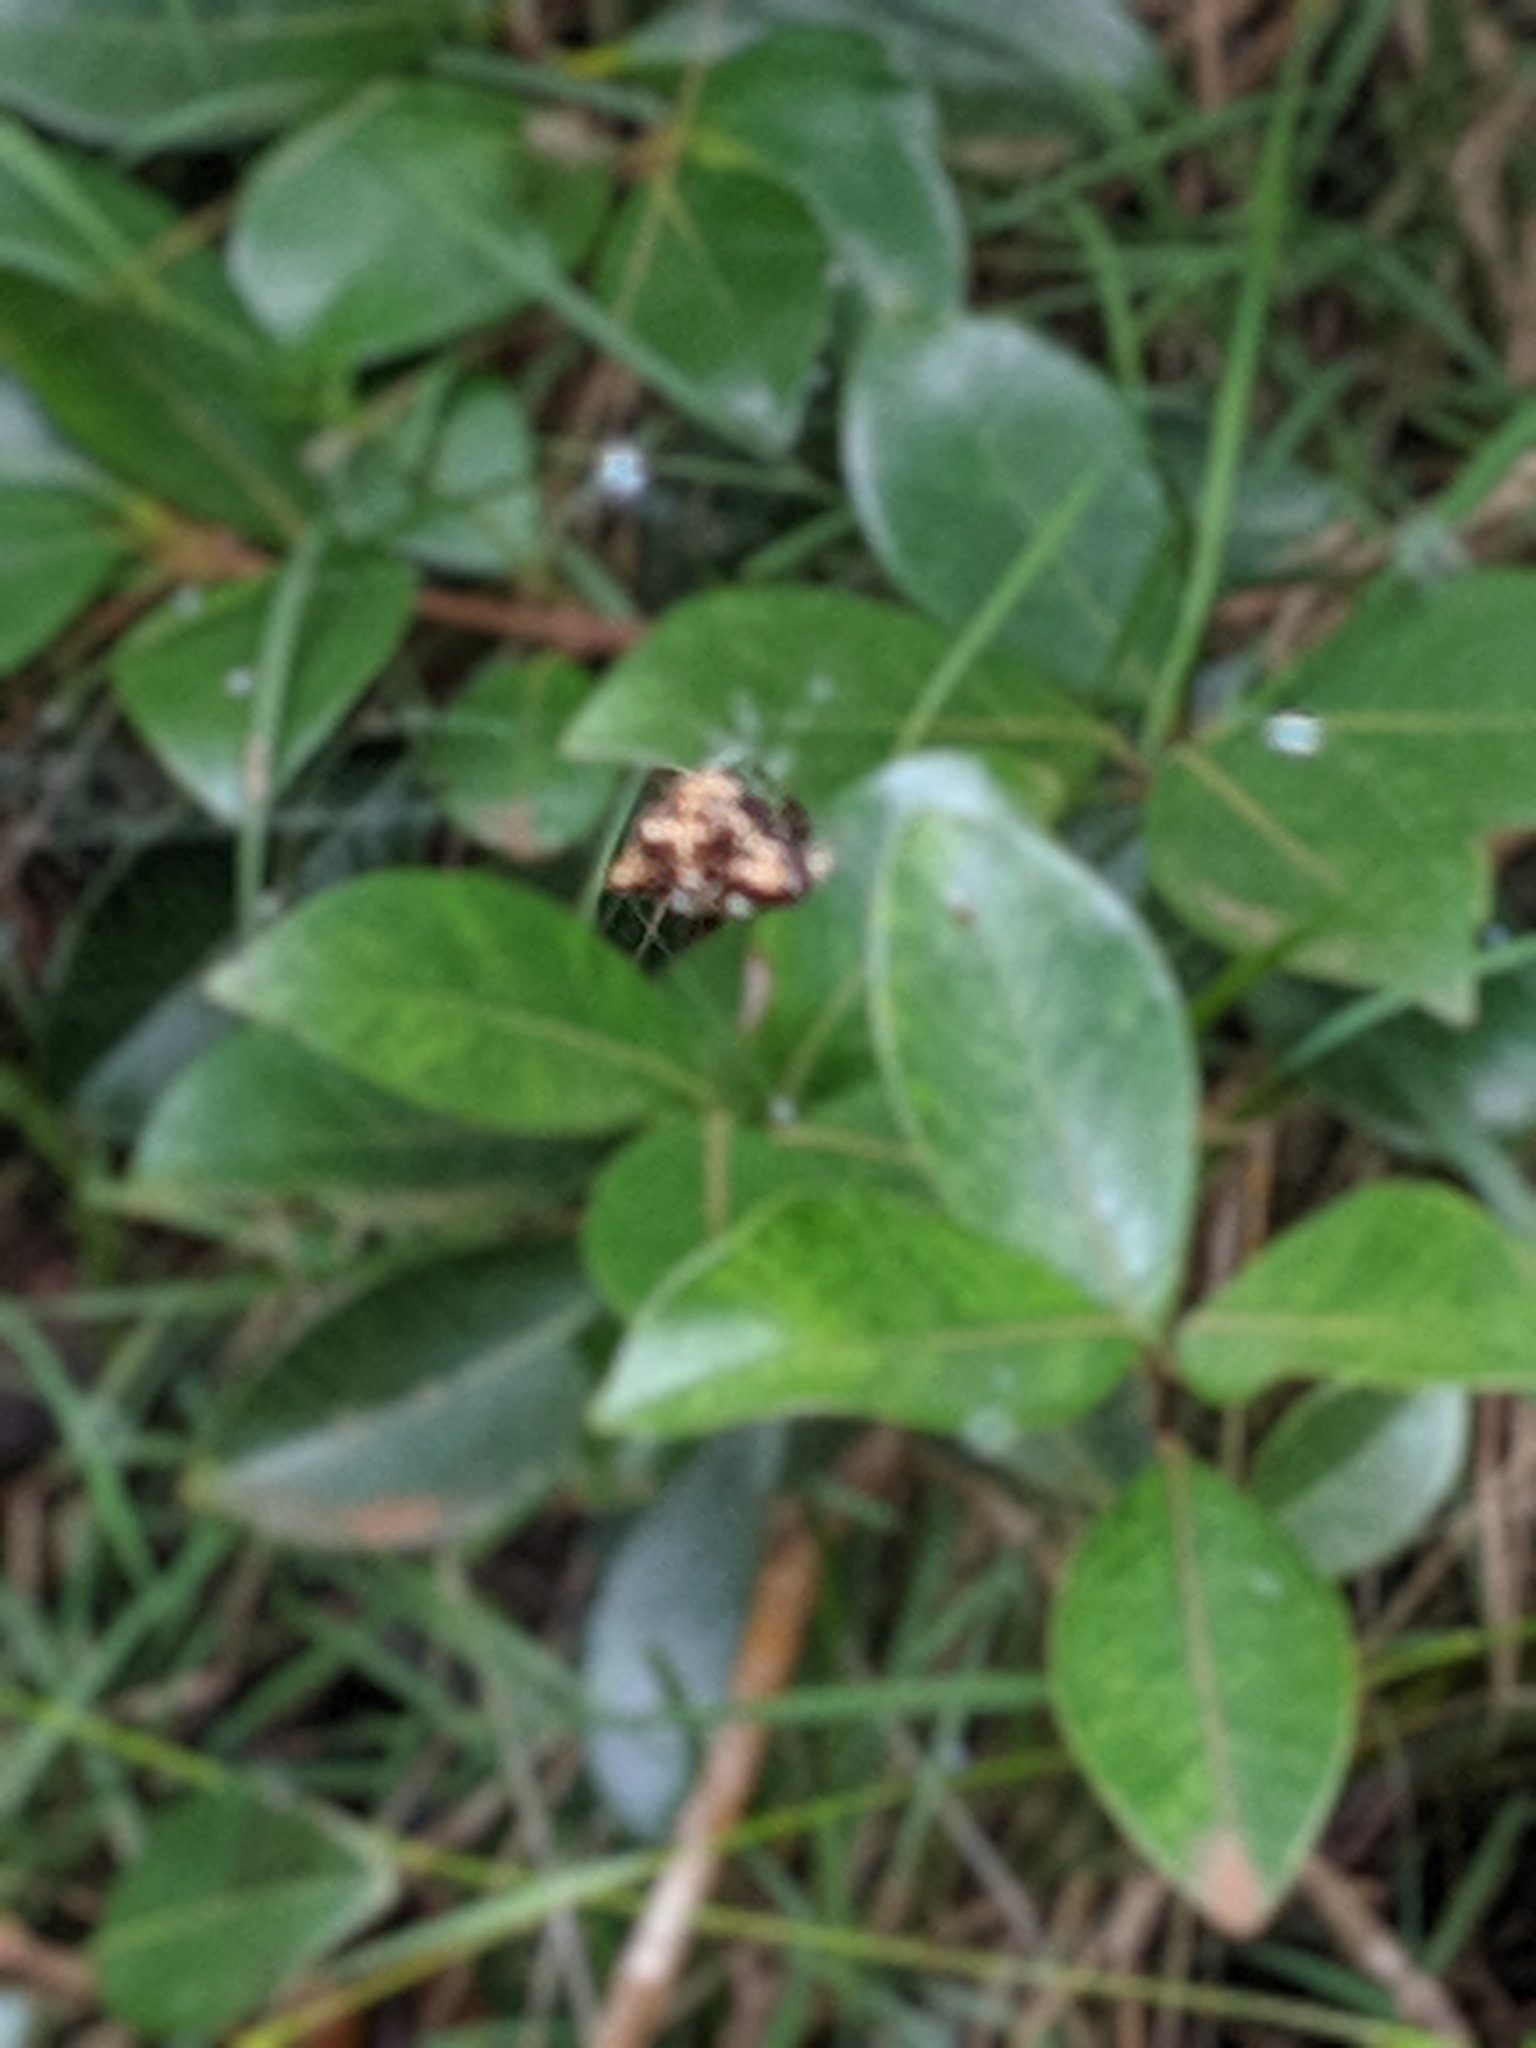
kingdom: Animalia
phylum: Arthropoda
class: Arachnida
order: Araneae
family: Araneidae
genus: Thelacantha
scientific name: Thelacantha brevispina
